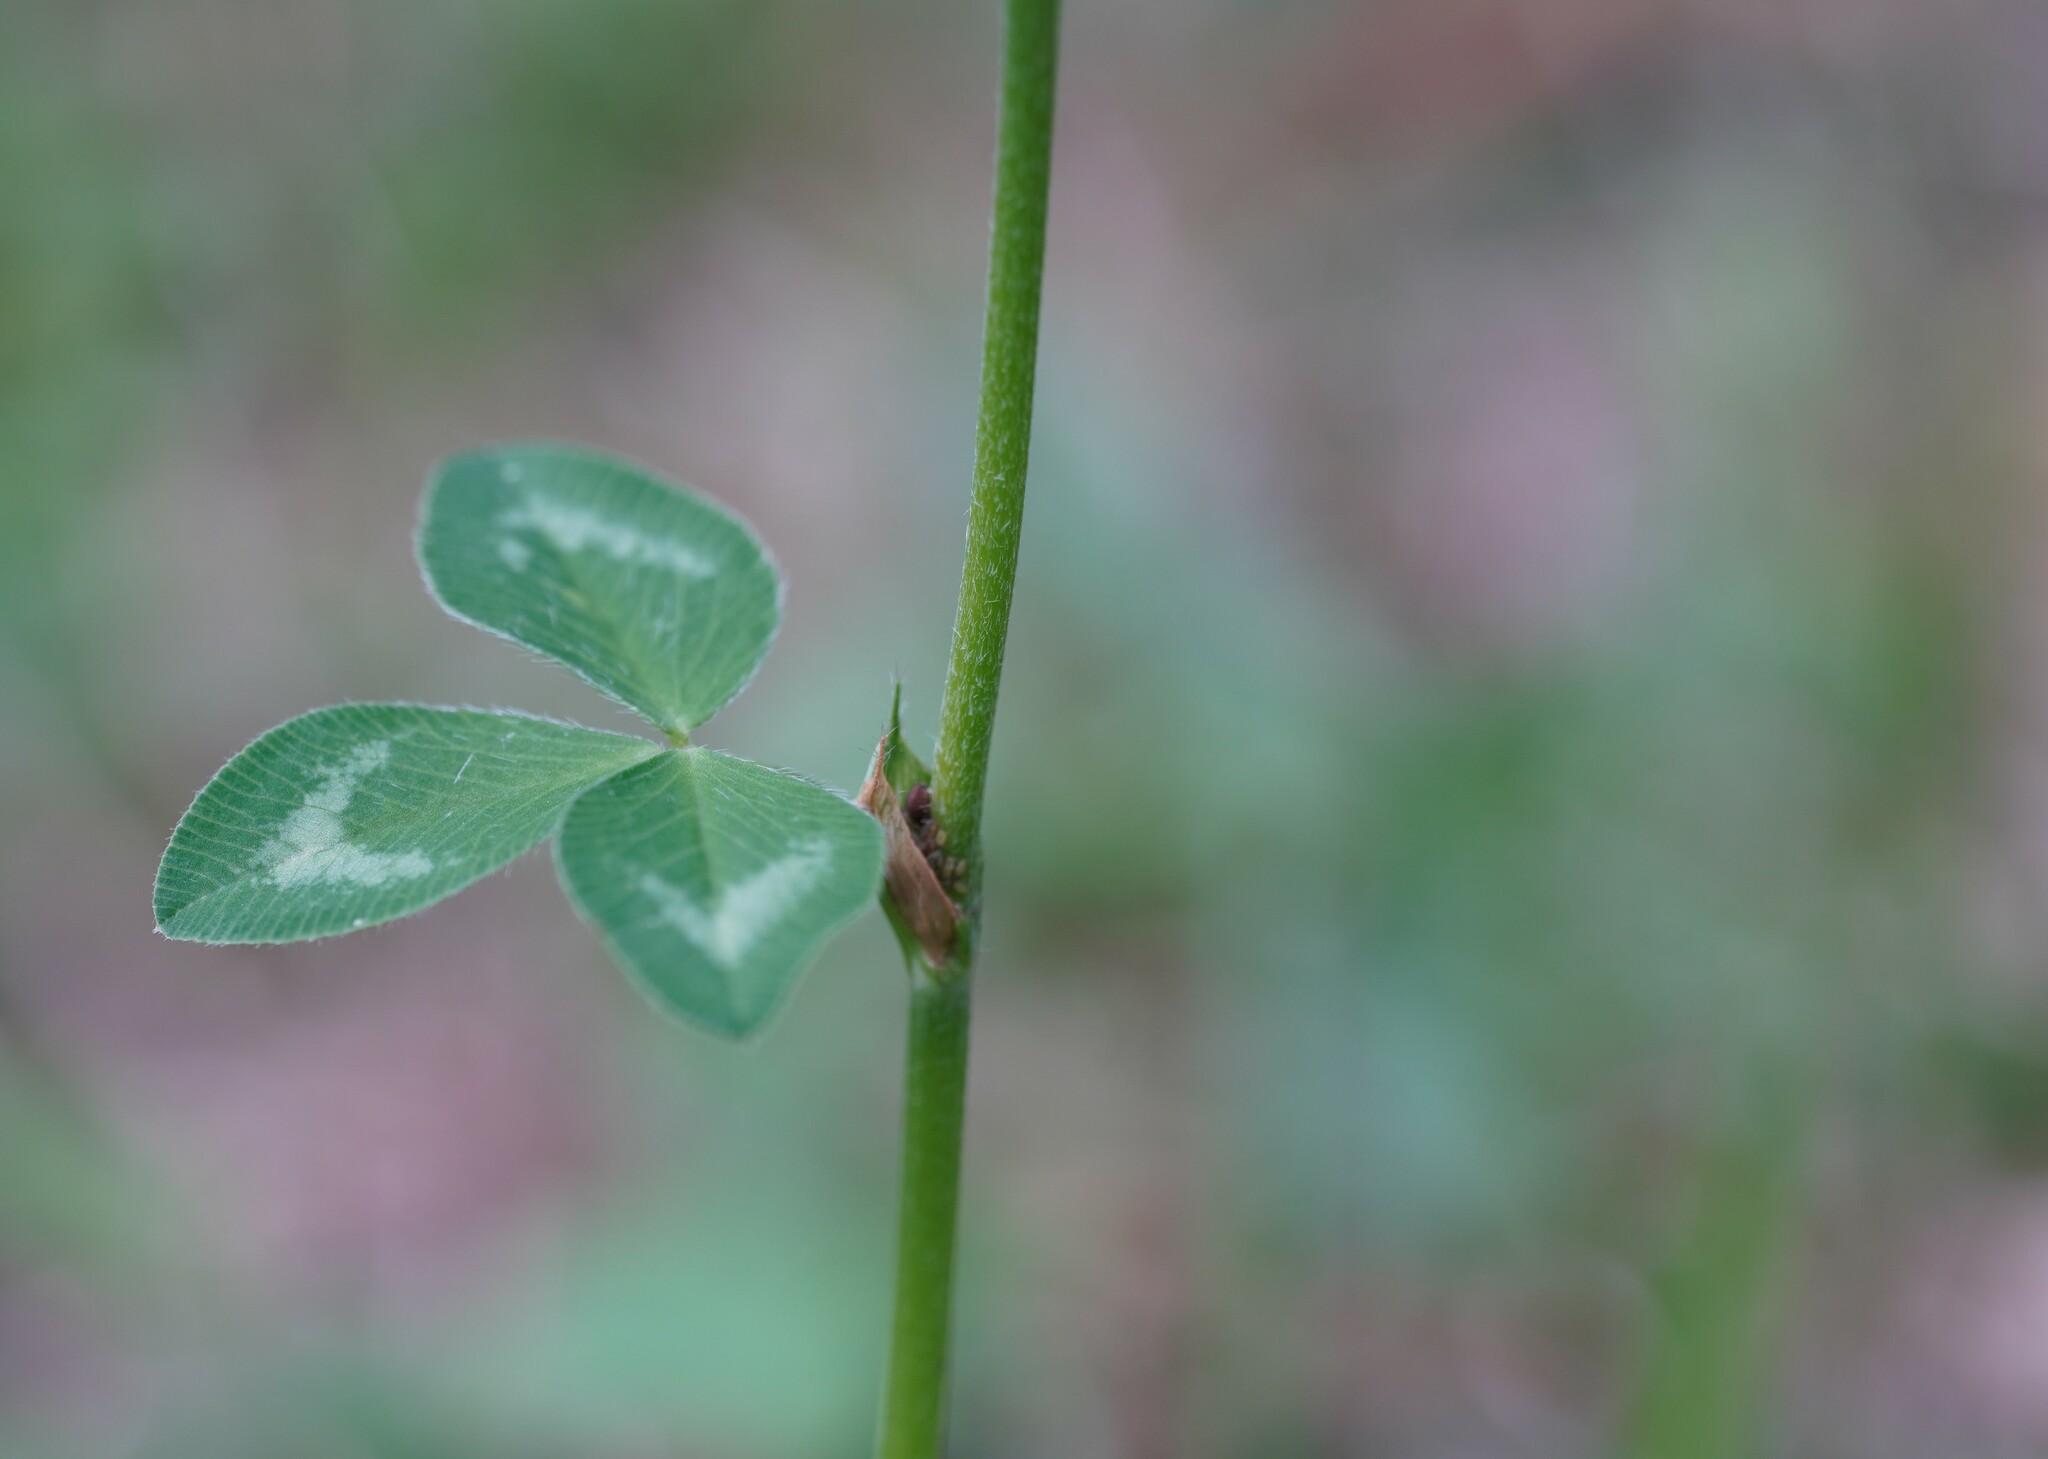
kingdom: Plantae
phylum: Tracheophyta
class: Magnoliopsida
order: Fabales
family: Fabaceae
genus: Trifolium
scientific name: Trifolium pratense
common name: Red clover
